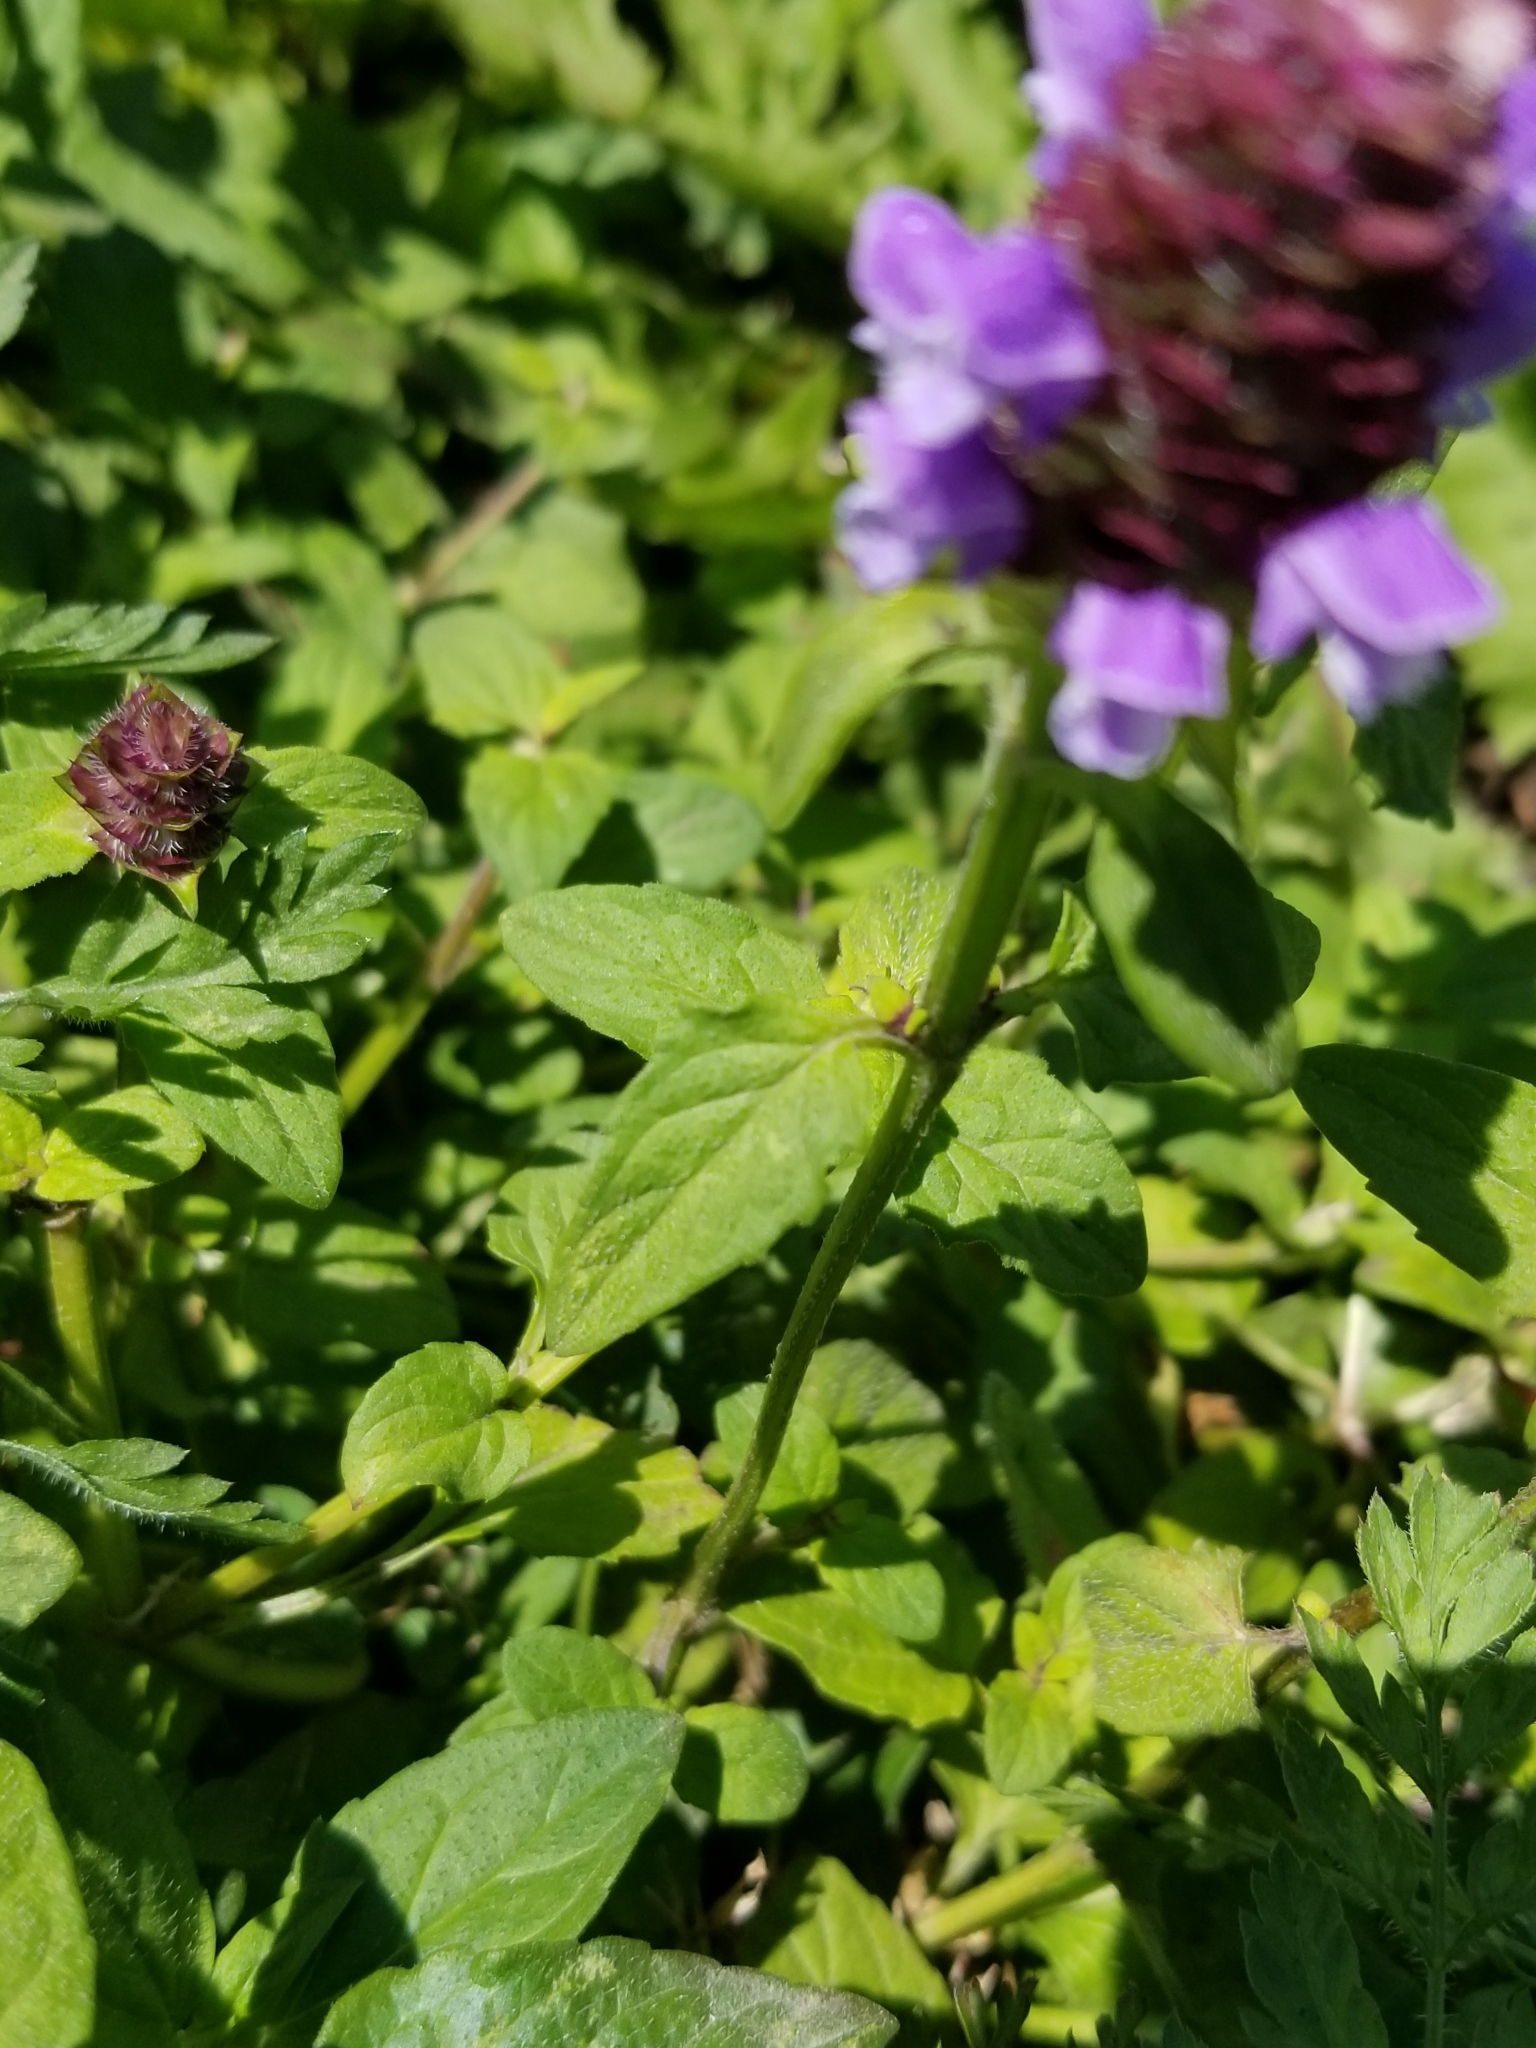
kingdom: Plantae
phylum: Tracheophyta
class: Magnoliopsida
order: Lamiales
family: Lamiaceae
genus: Prunella
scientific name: Prunella vulgaris
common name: Heal-all
